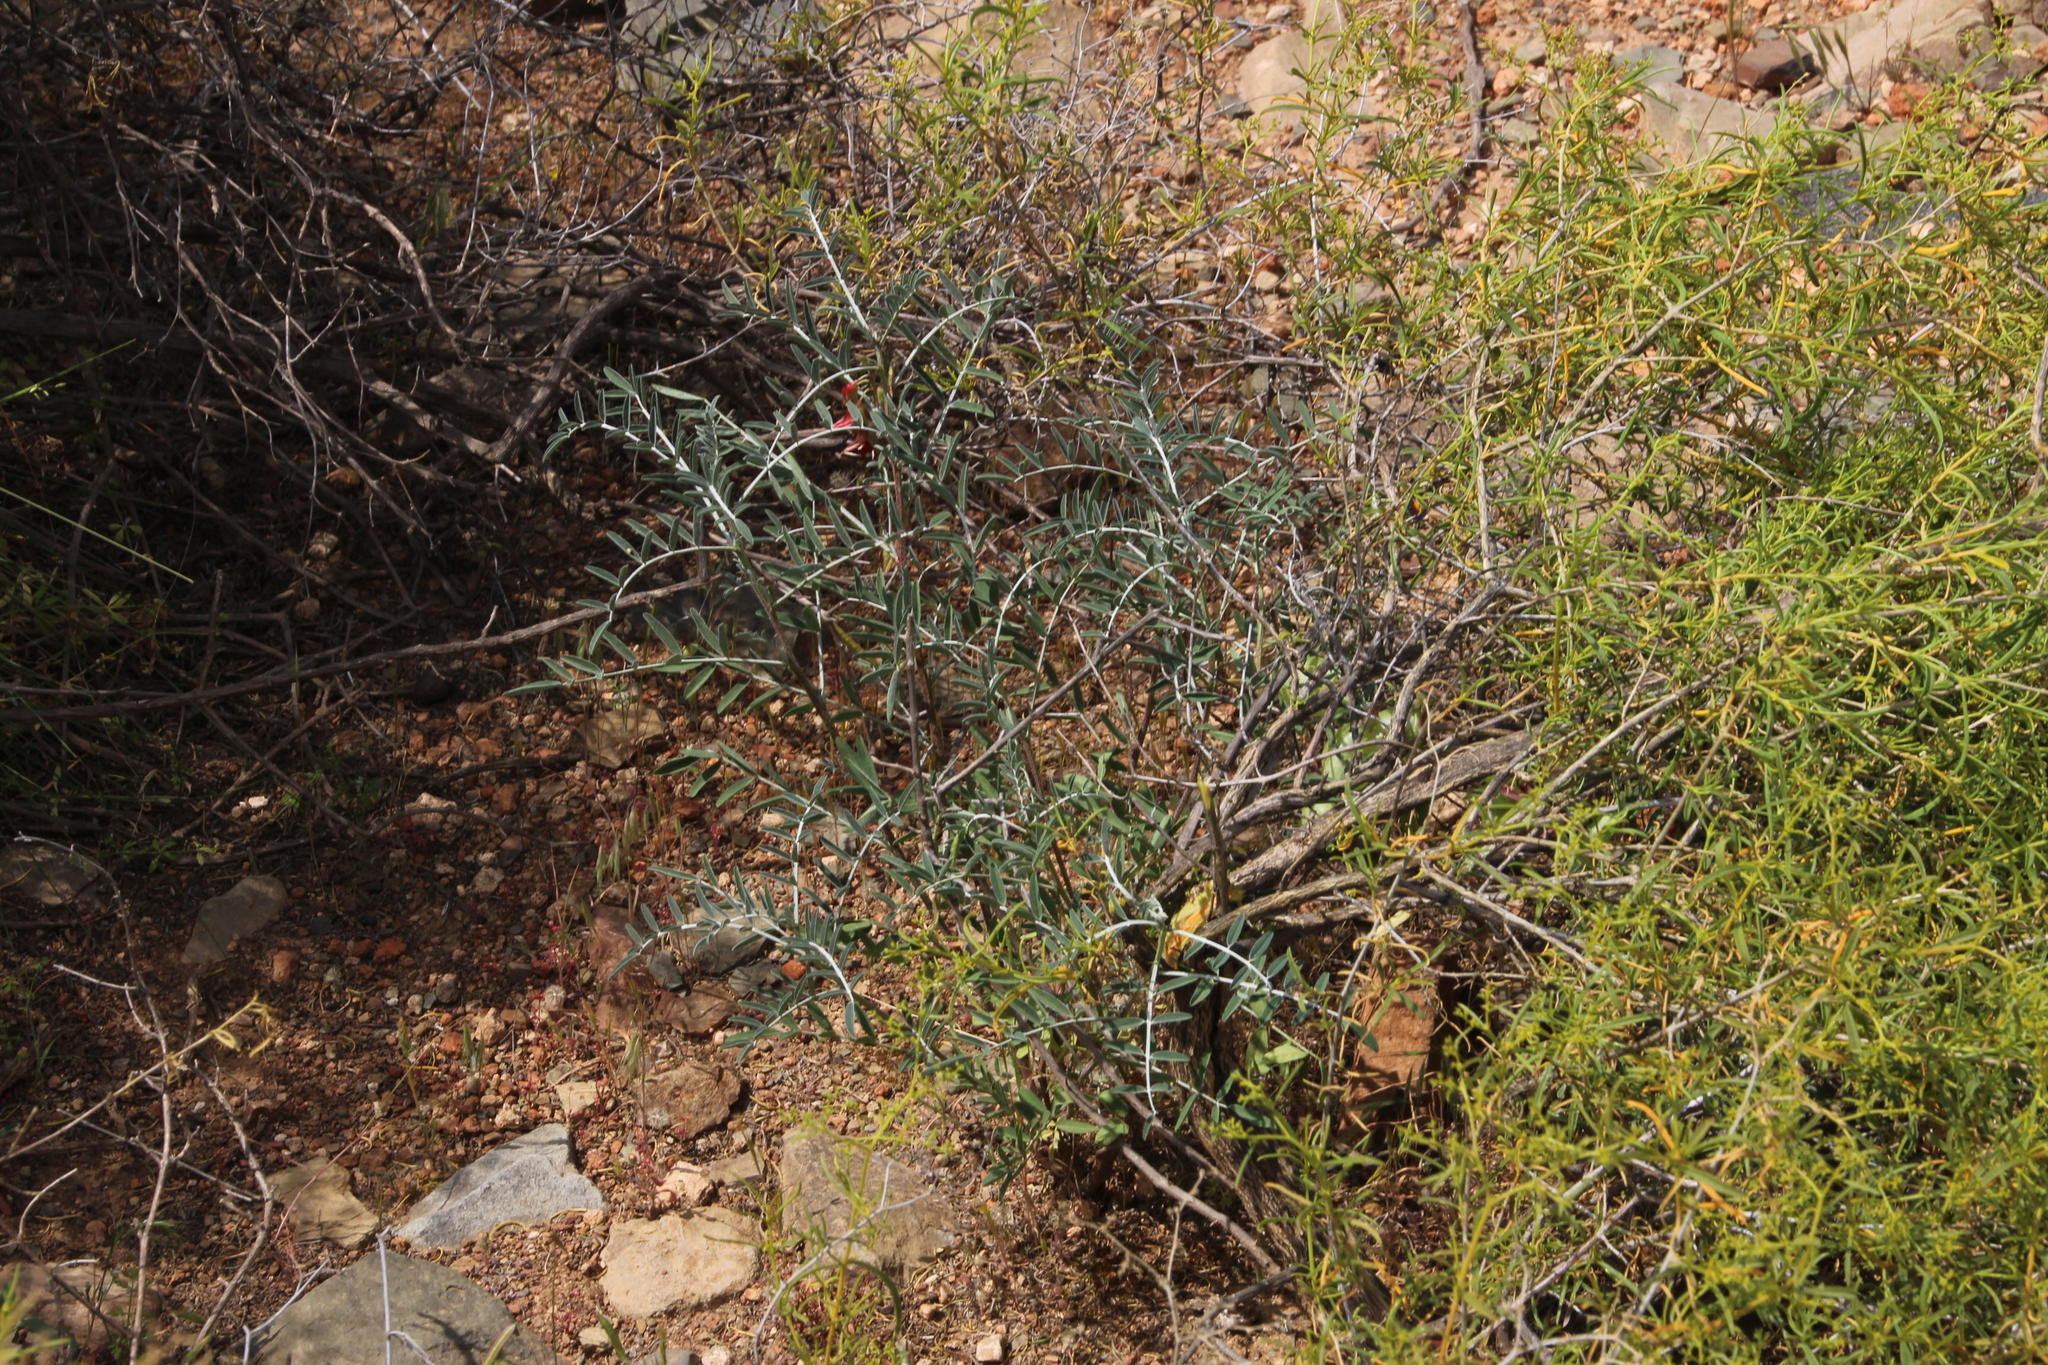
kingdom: Plantae
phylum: Tracheophyta
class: Magnoliopsida
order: Fabales
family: Fabaceae
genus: Lessertia
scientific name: Lessertia frutescens
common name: Balloon-pea
